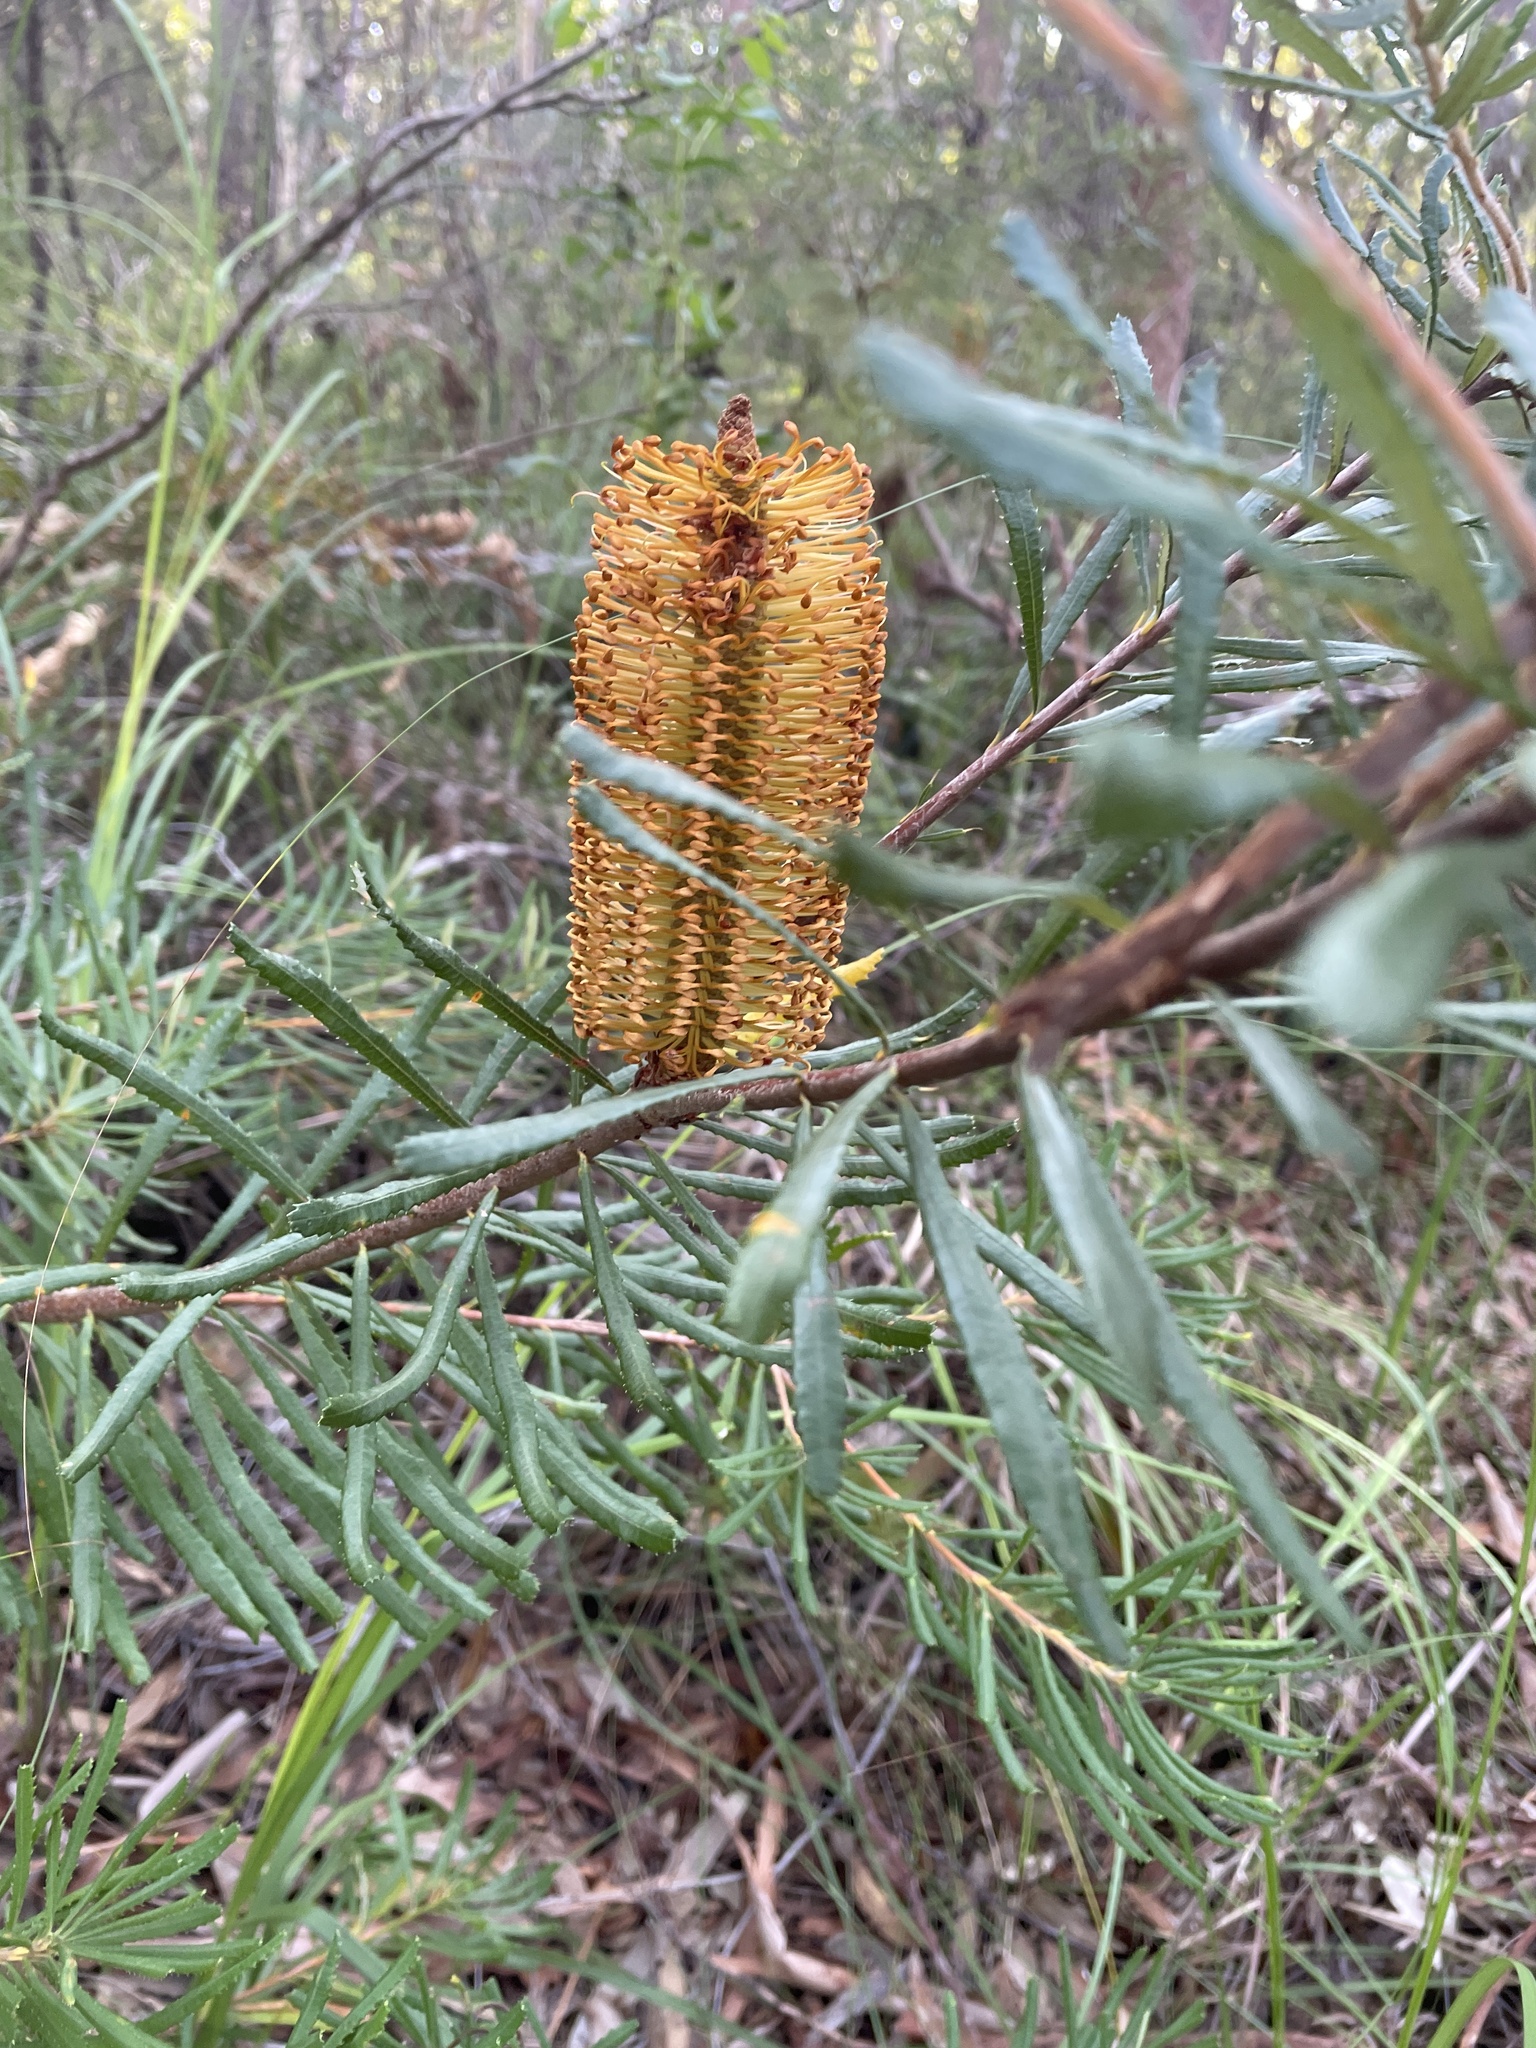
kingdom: Plantae
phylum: Tracheophyta
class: Magnoliopsida
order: Proteales
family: Proteaceae
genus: Banksia
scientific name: Banksia spinulosa
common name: Hairpin banksia
